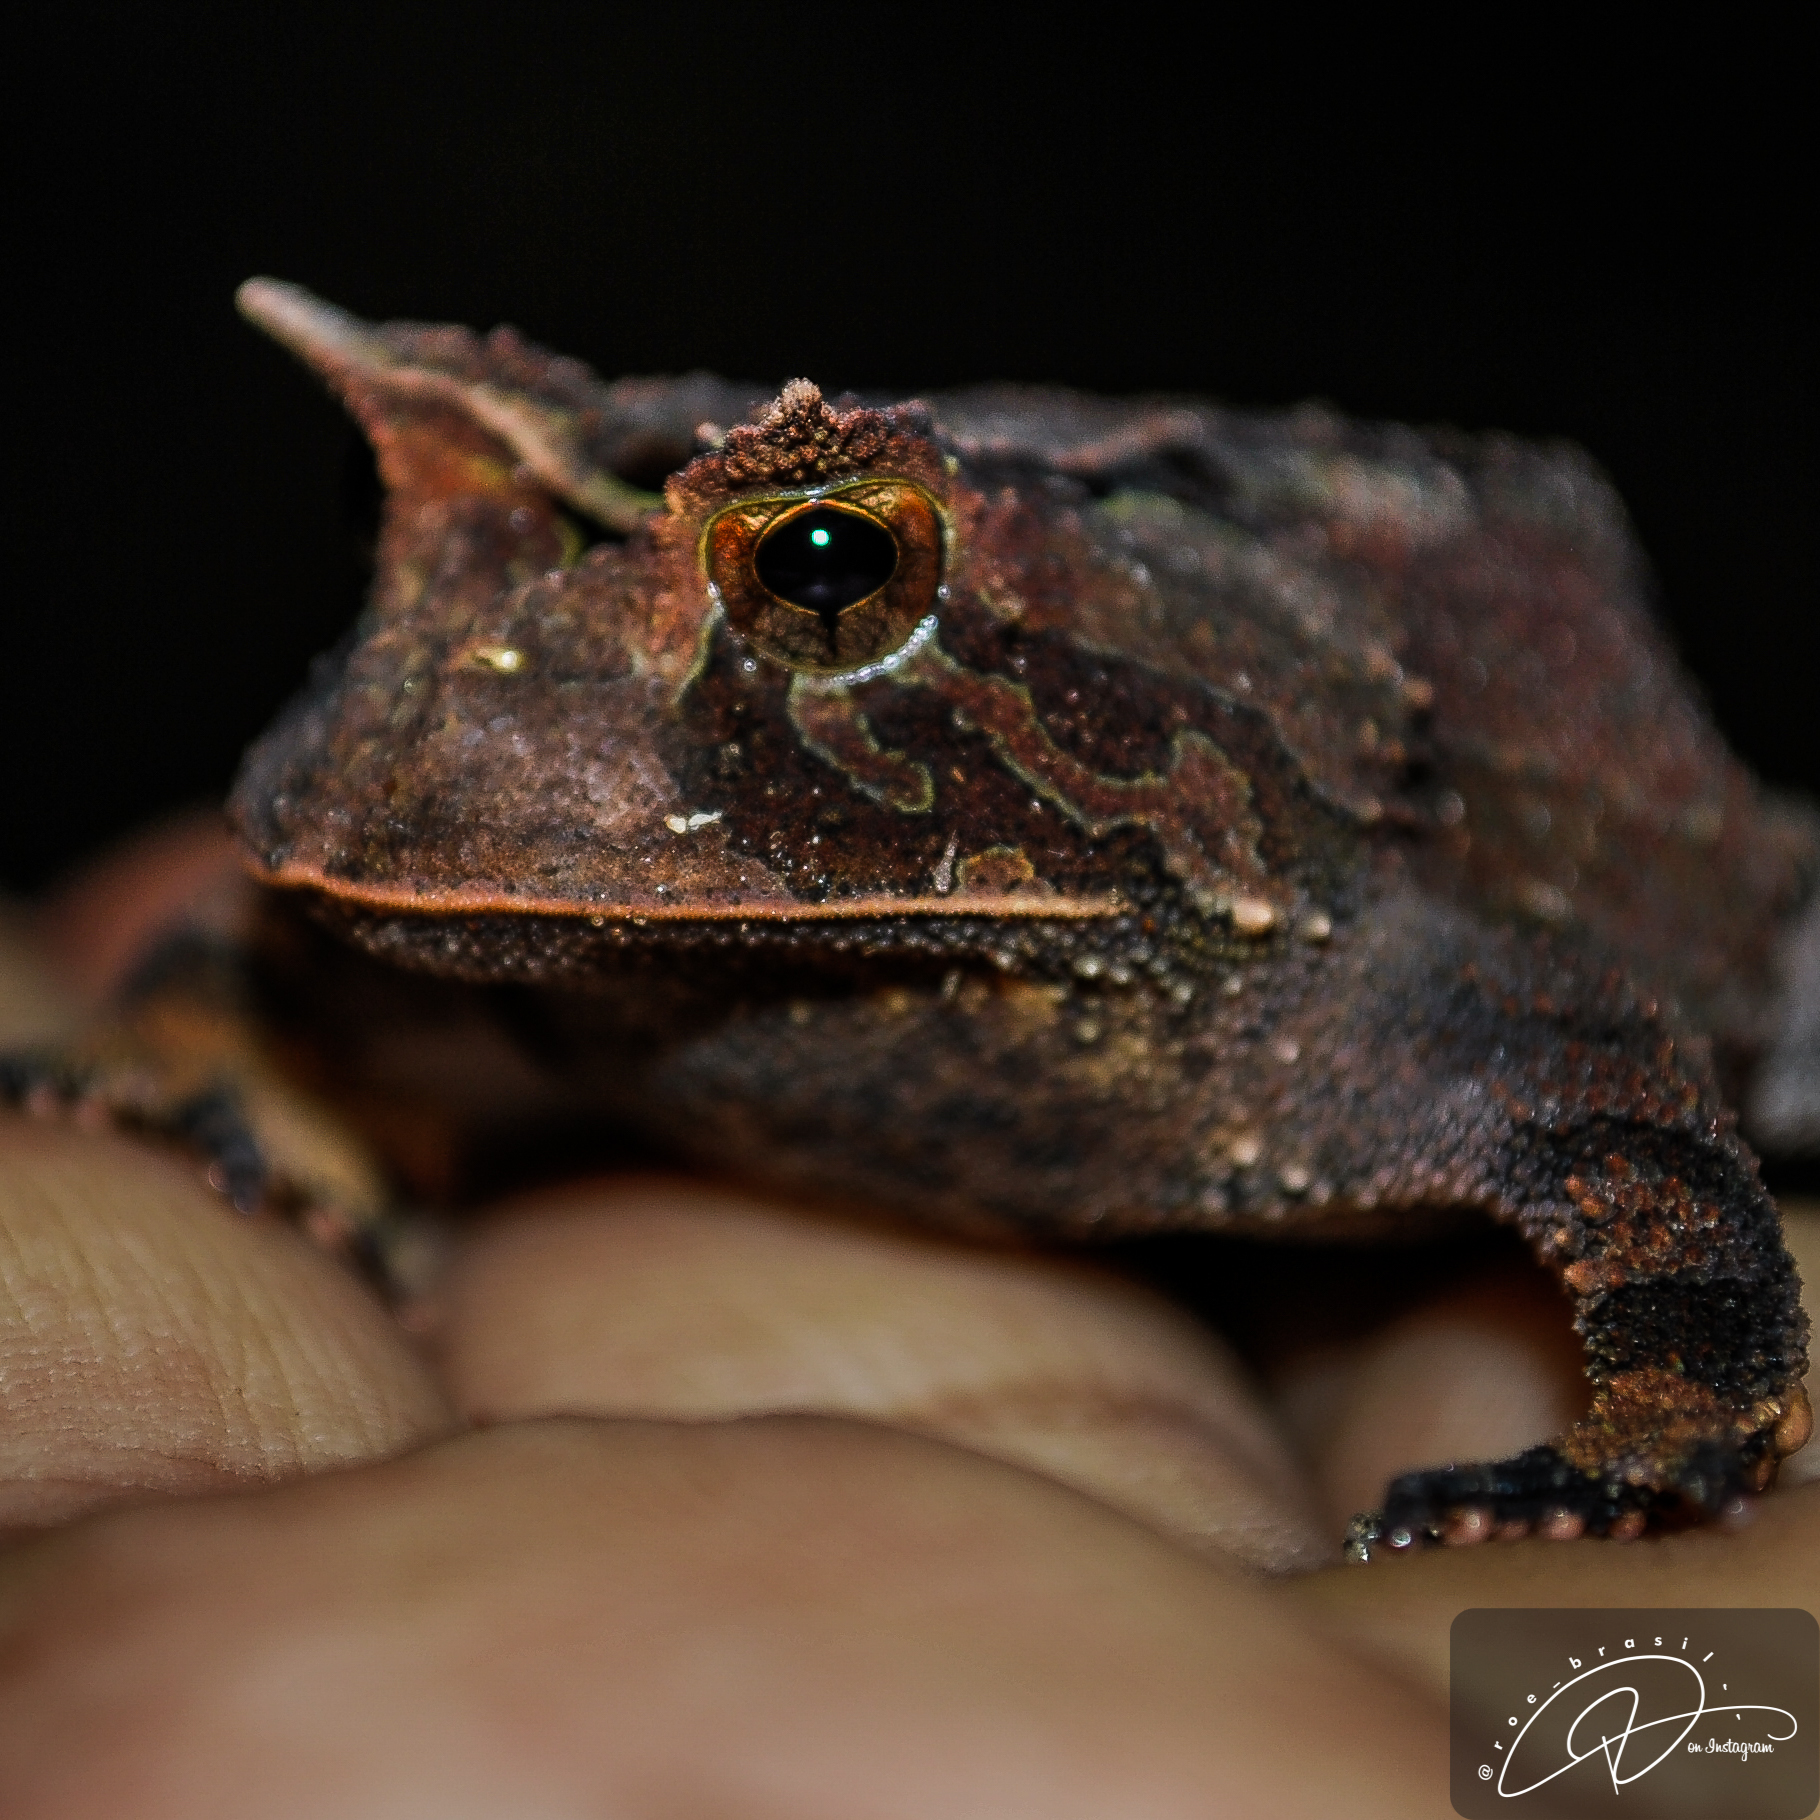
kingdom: Animalia
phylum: Chordata
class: Amphibia
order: Anura
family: Odontophrynidae
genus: Proceratophrys
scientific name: Proceratophrys boiei
